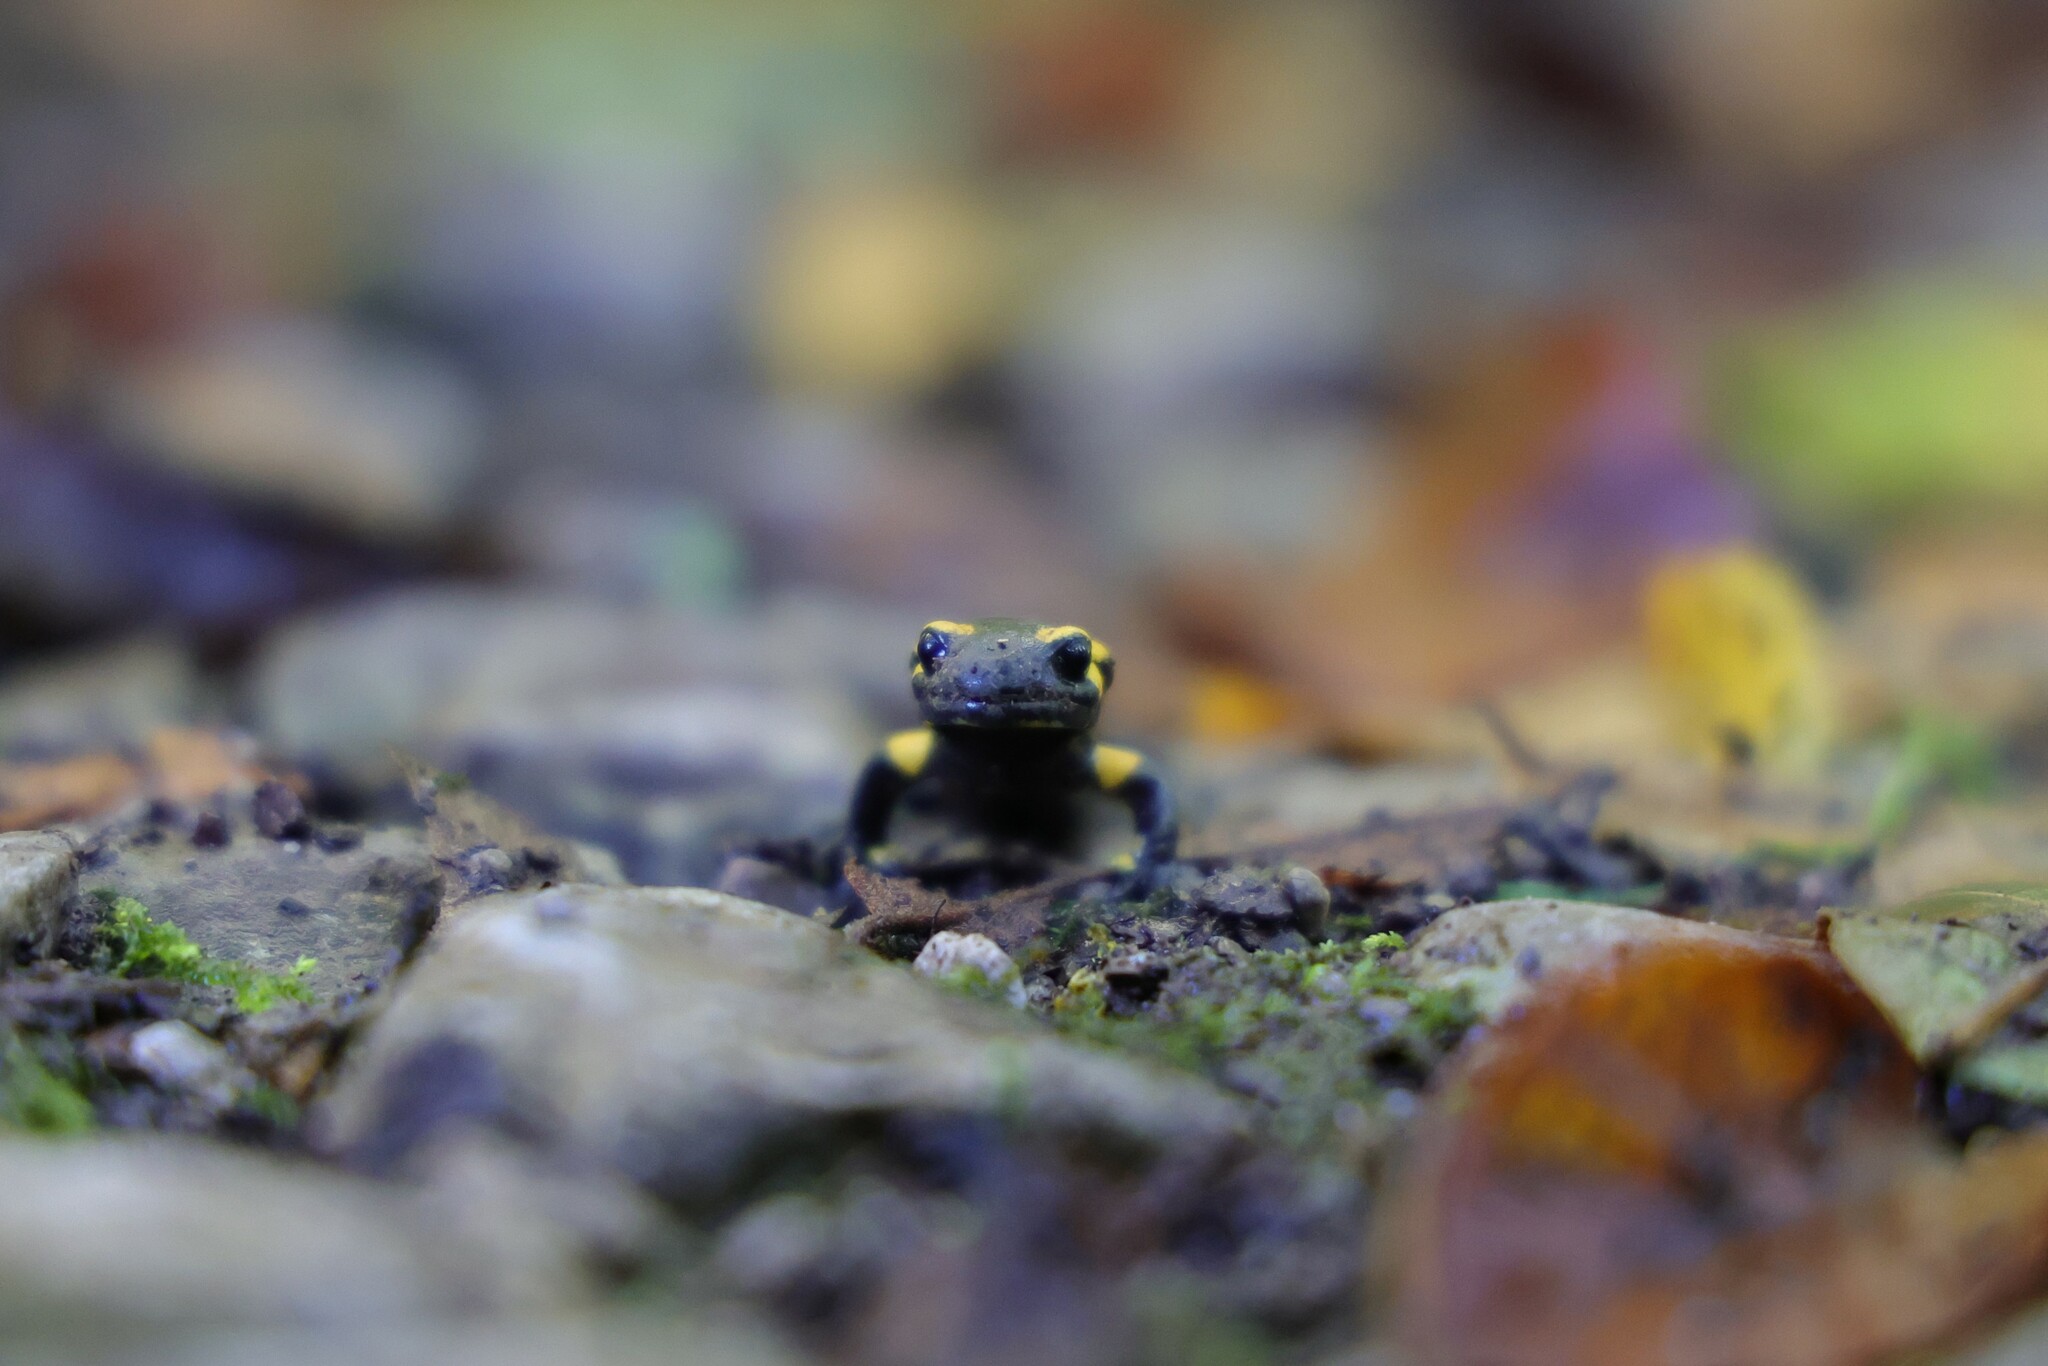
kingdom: Animalia
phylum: Chordata
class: Amphibia
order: Caudata
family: Salamandridae
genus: Salamandra
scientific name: Salamandra salamandra
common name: Fire salamander
